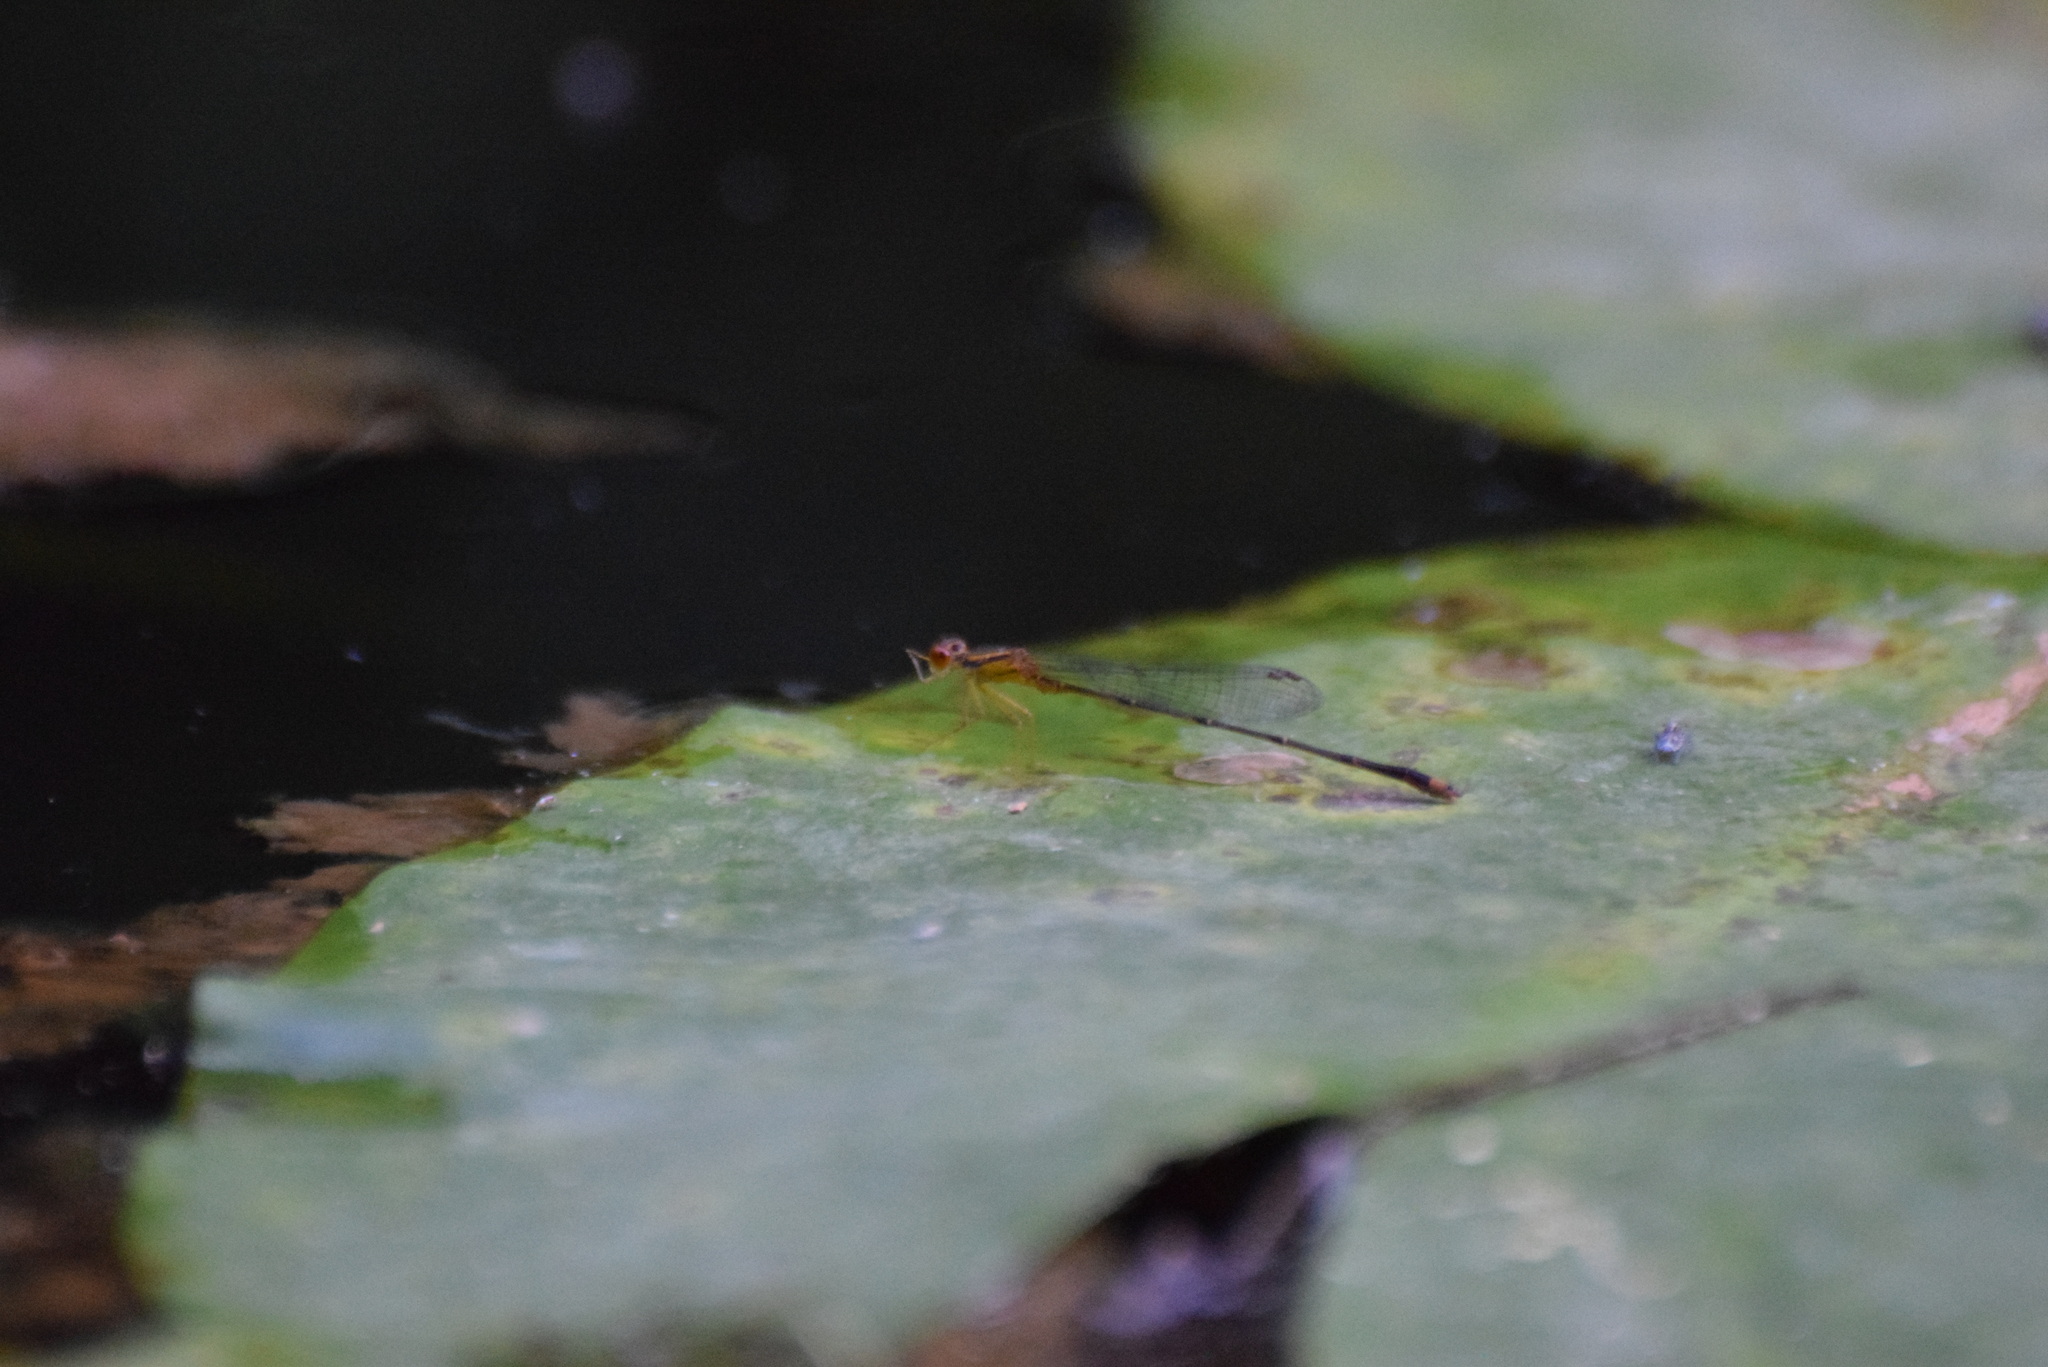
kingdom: Animalia
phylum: Arthropoda
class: Insecta
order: Odonata
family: Coenagrionidae
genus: Enallagma
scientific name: Enallagma signatum
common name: Orange bluet
